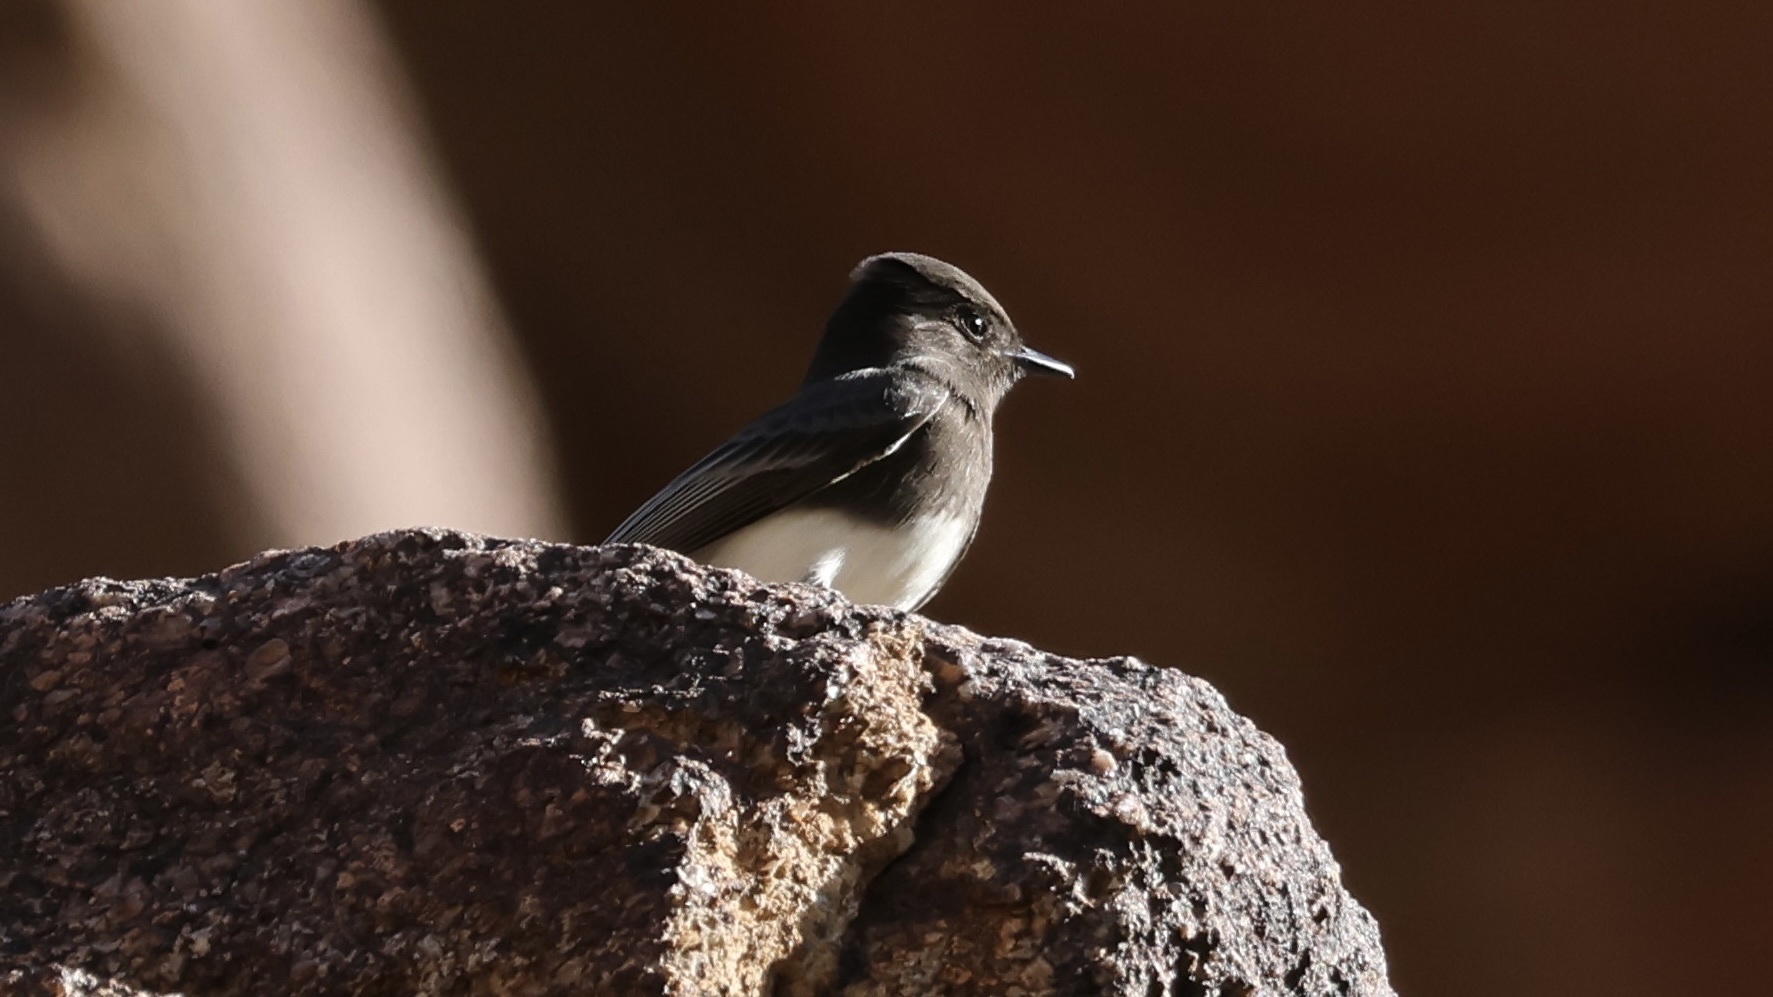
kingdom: Animalia
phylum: Chordata
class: Aves
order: Passeriformes
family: Tyrannidae
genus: Sayornis
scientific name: Sayornis nigricans
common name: Black phoebe
